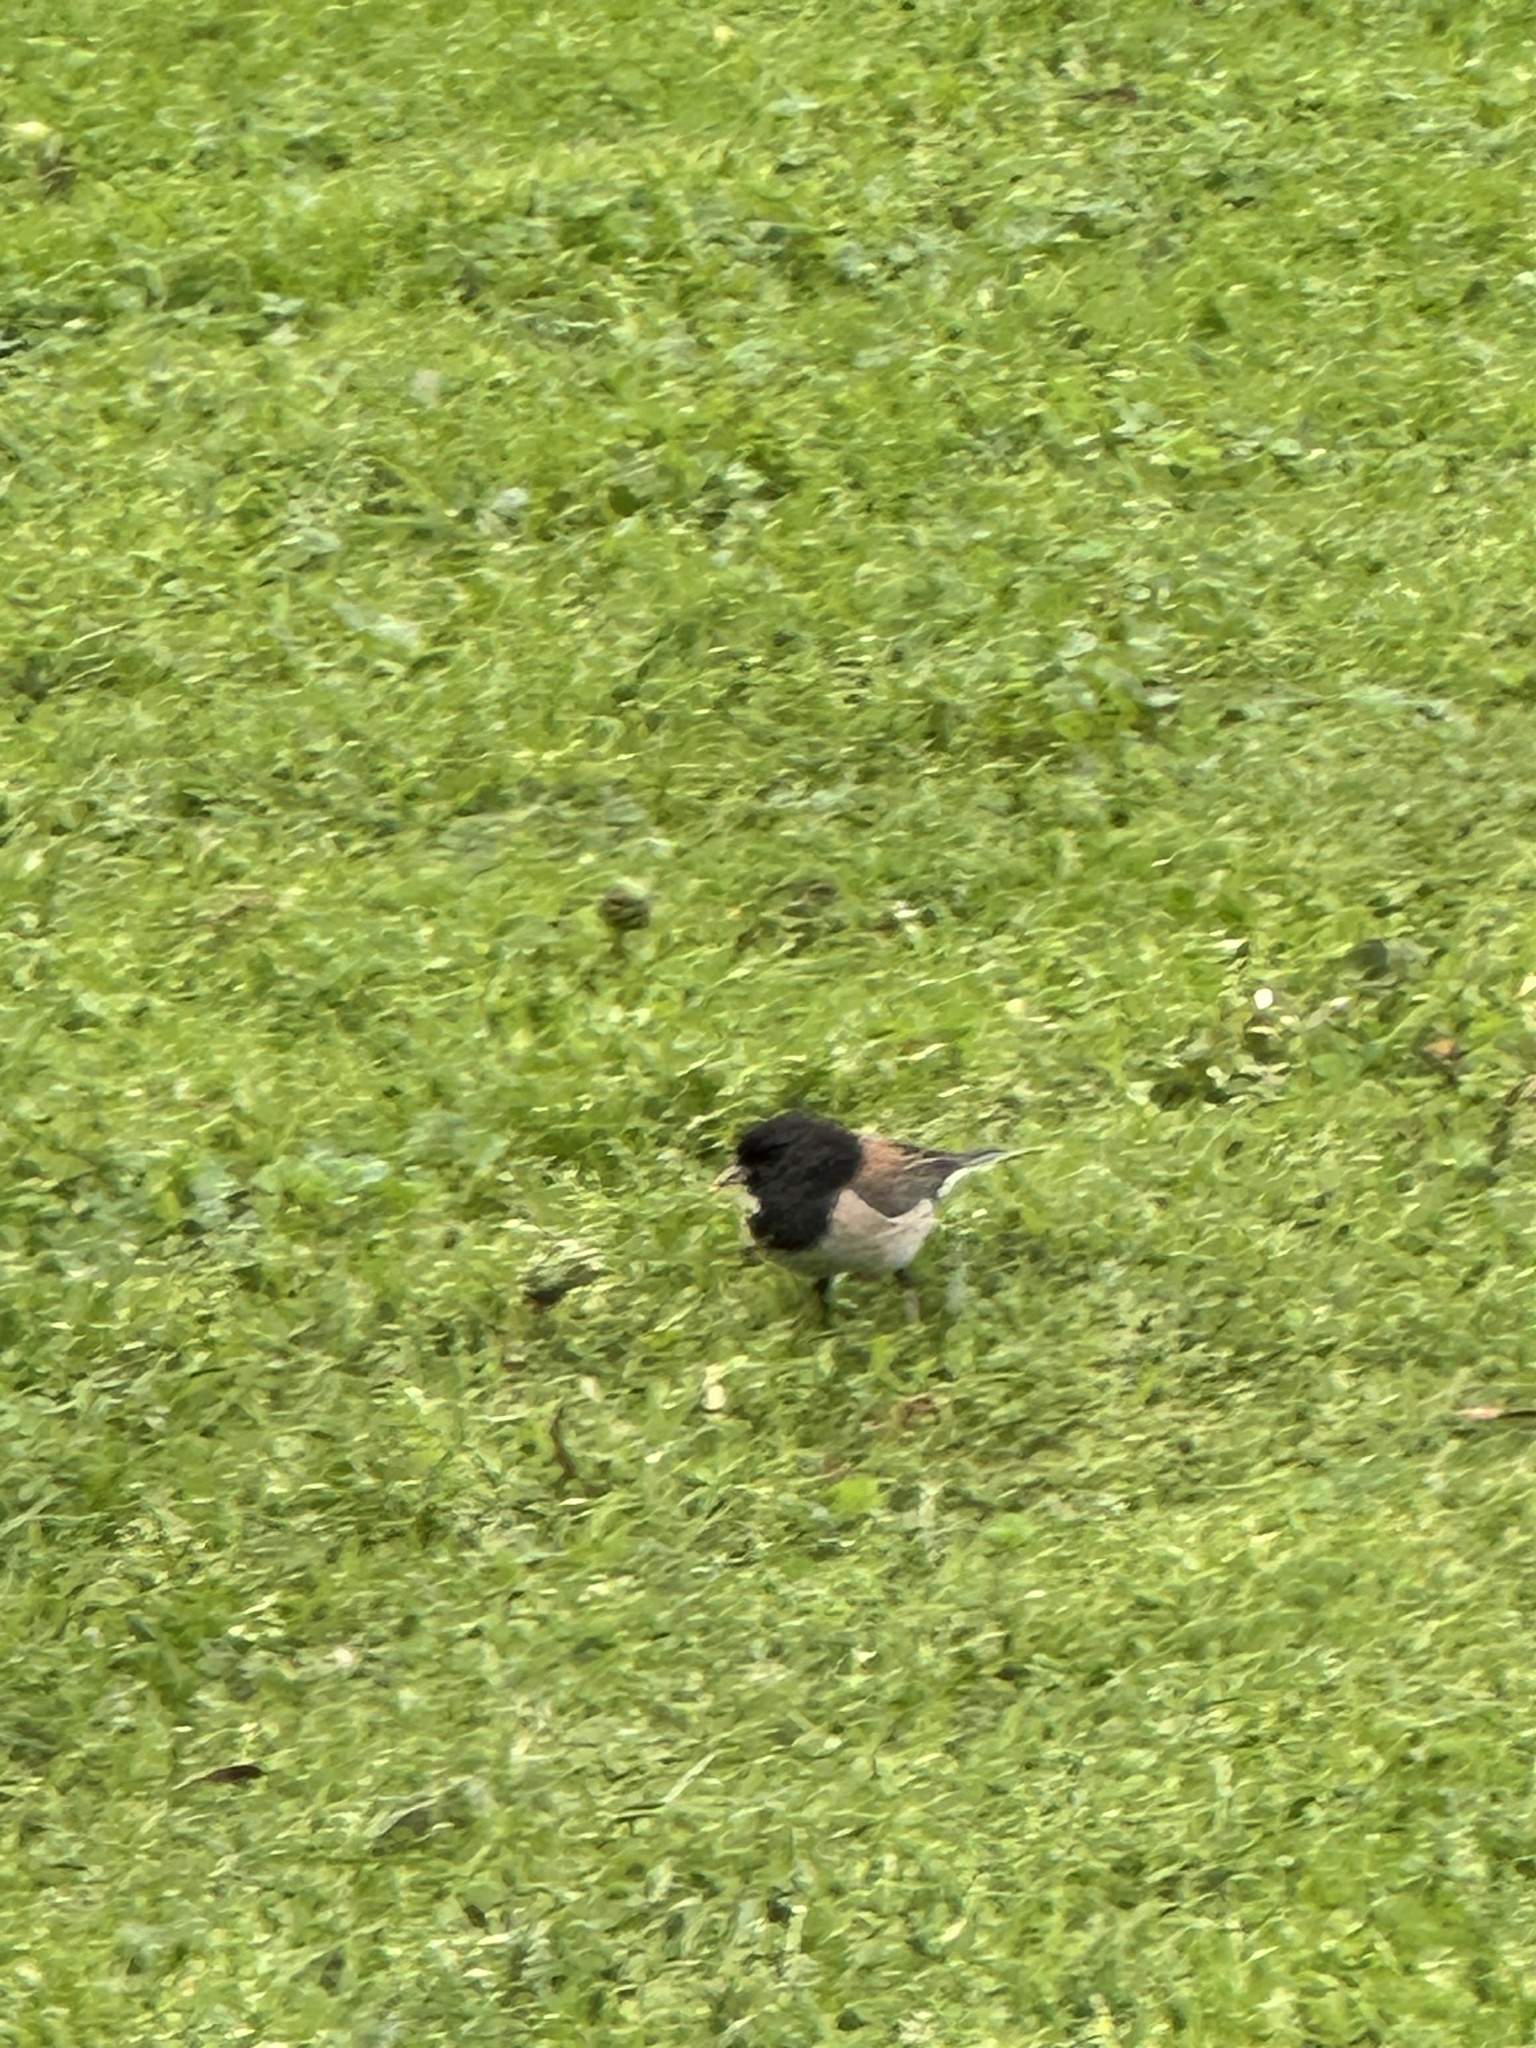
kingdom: Animalia
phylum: Chordata
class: Aves
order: Passeriformes
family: Passerellidae
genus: Junco
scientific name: Junco hyemalis
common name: Dark-eyed junco
